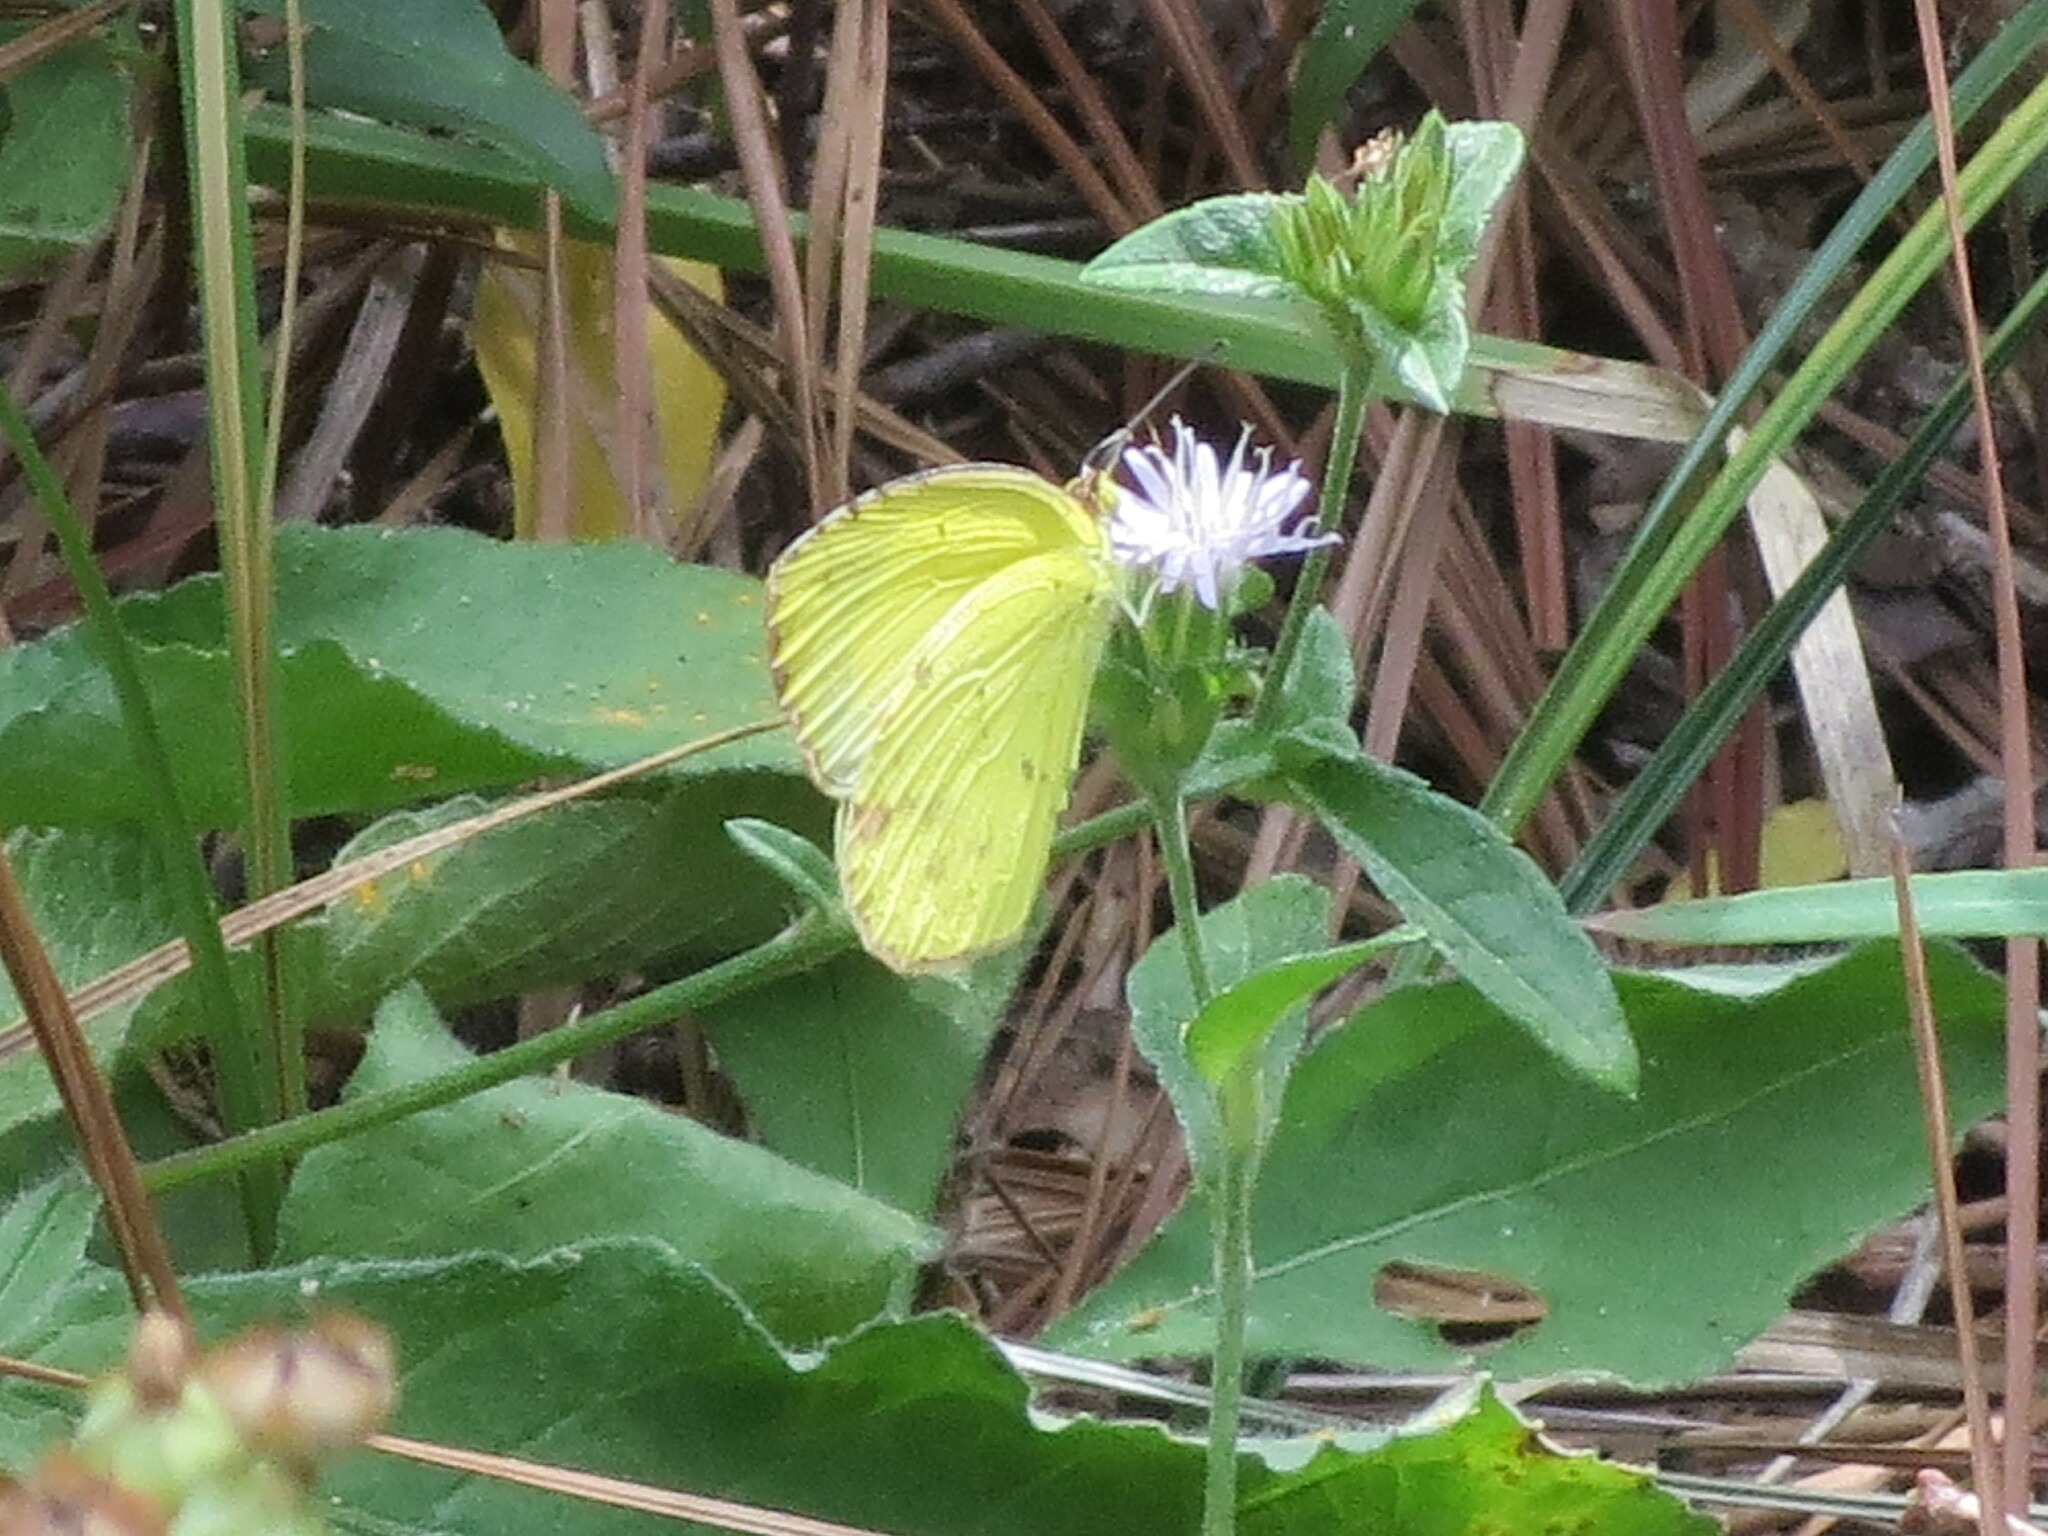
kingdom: Animalia
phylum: Arthropoda
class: Insecta
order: Lepidoptera
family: Pieridae
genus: Pyrisitia
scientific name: Pyrisitia lisa
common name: Little yellow
